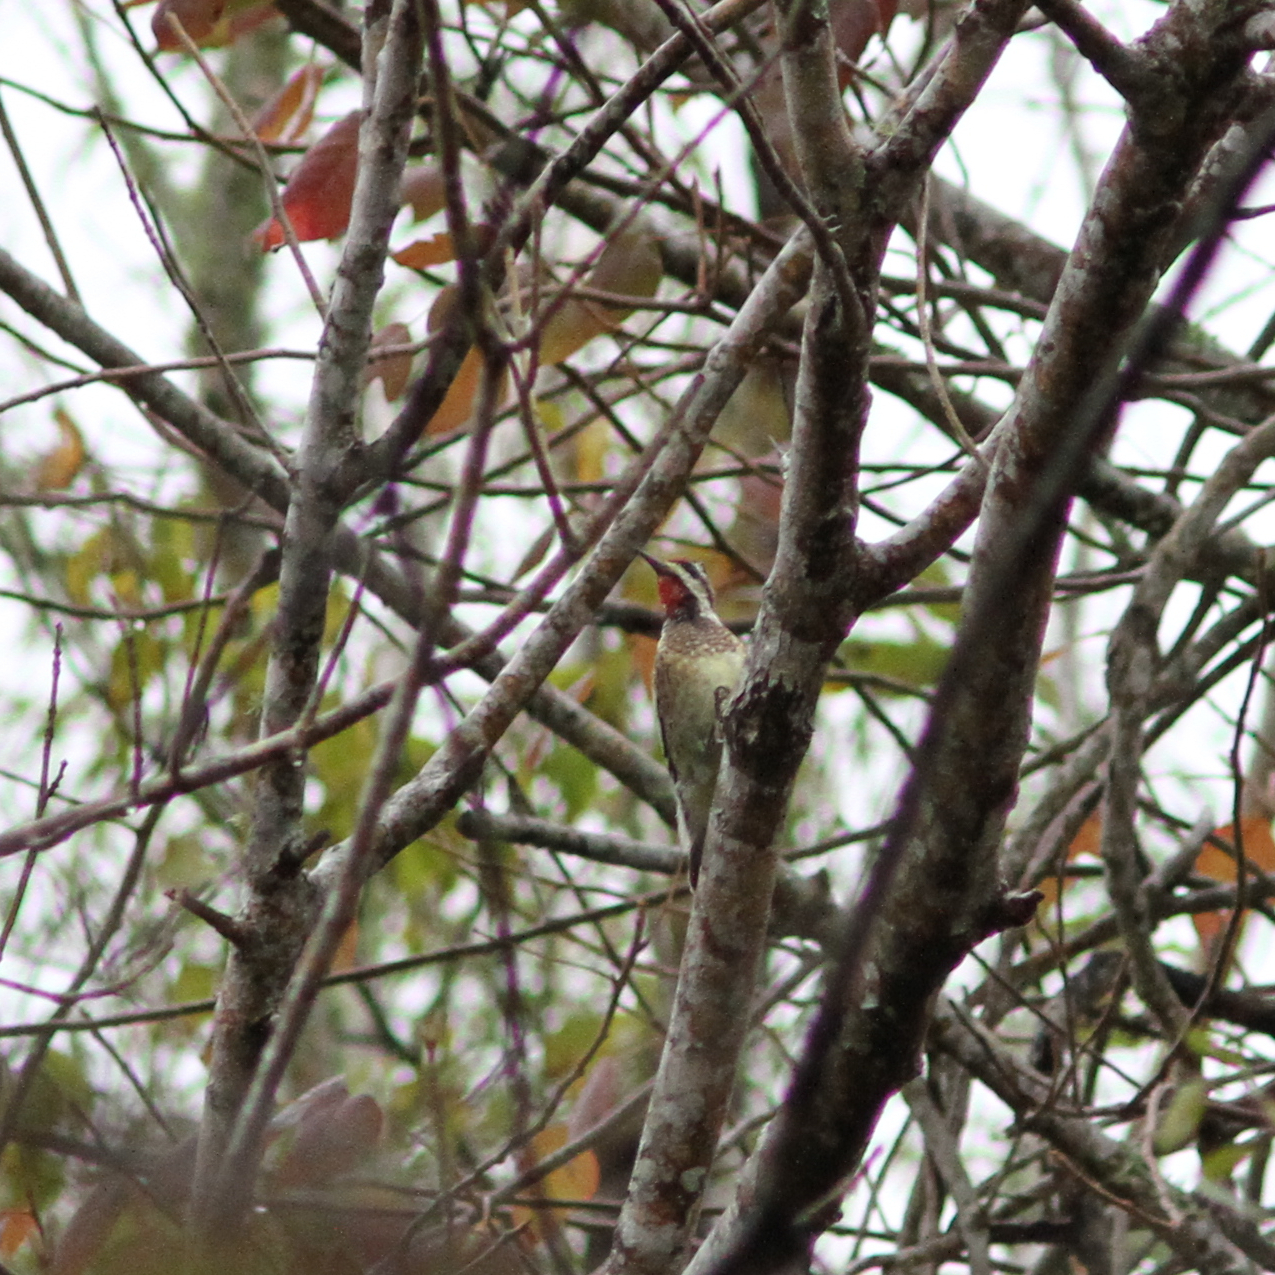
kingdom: Animalia
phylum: Chordata
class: Aves
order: Piciformes
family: Picidae
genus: Sphyrapicus
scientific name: Sphyrapicus varius
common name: Yellow-bellied sapsucker
